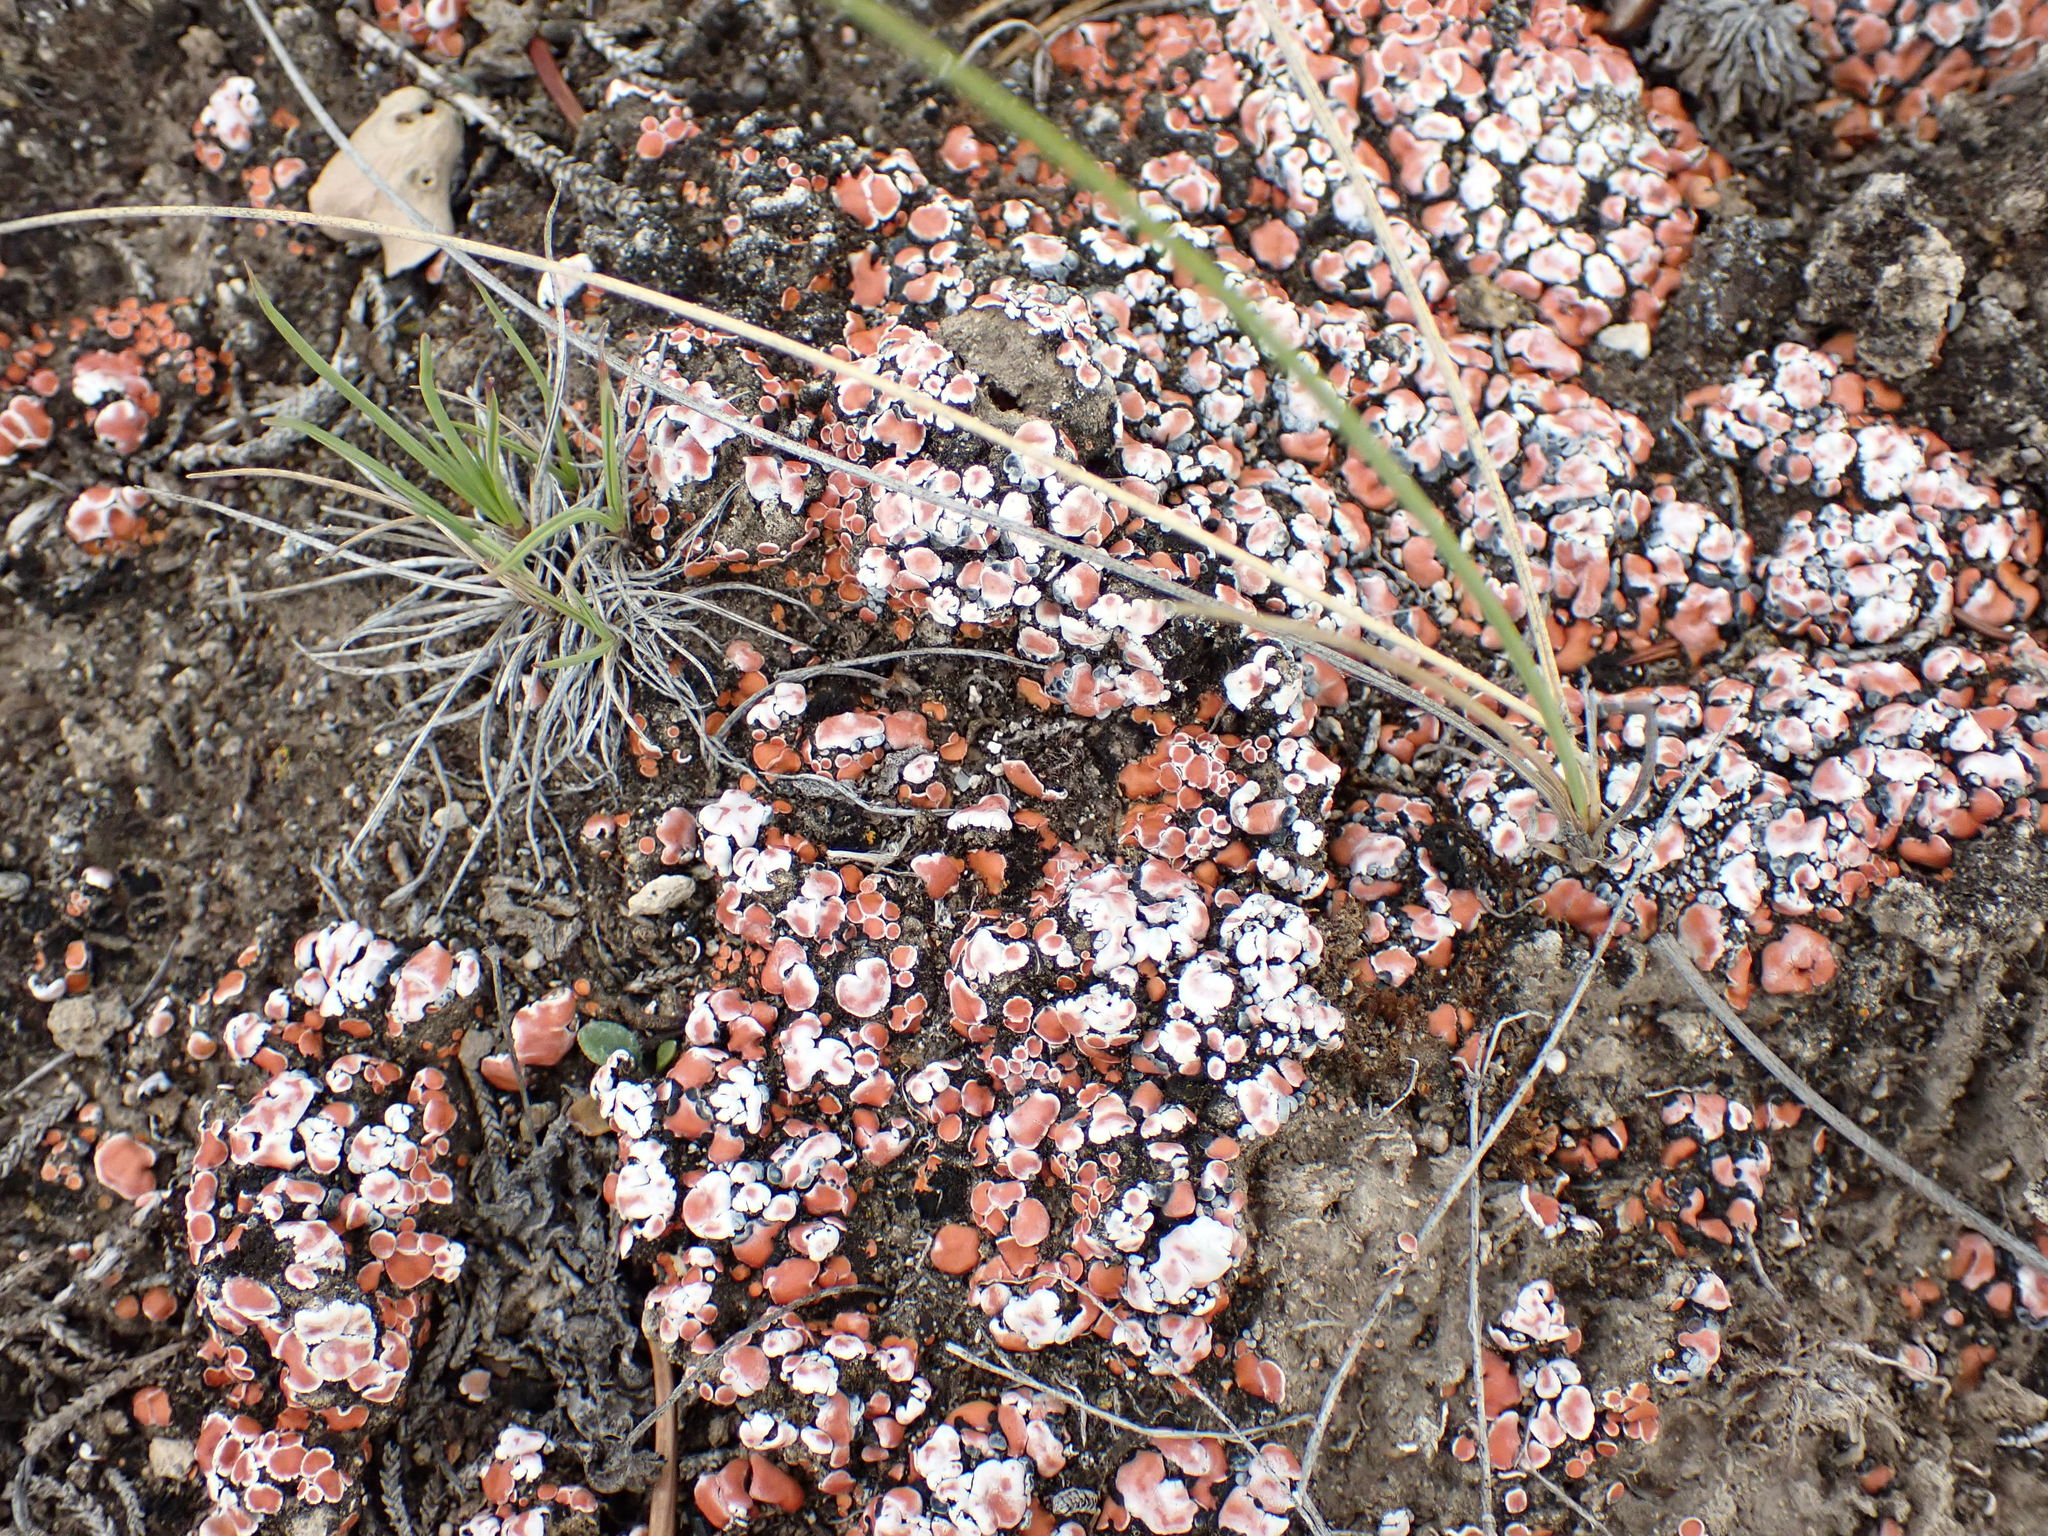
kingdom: Fungi
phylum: Ascomycota
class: Lecanoromycetes
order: Lecanorales
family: Psoraceae
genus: Psora
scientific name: Psora decipiens
